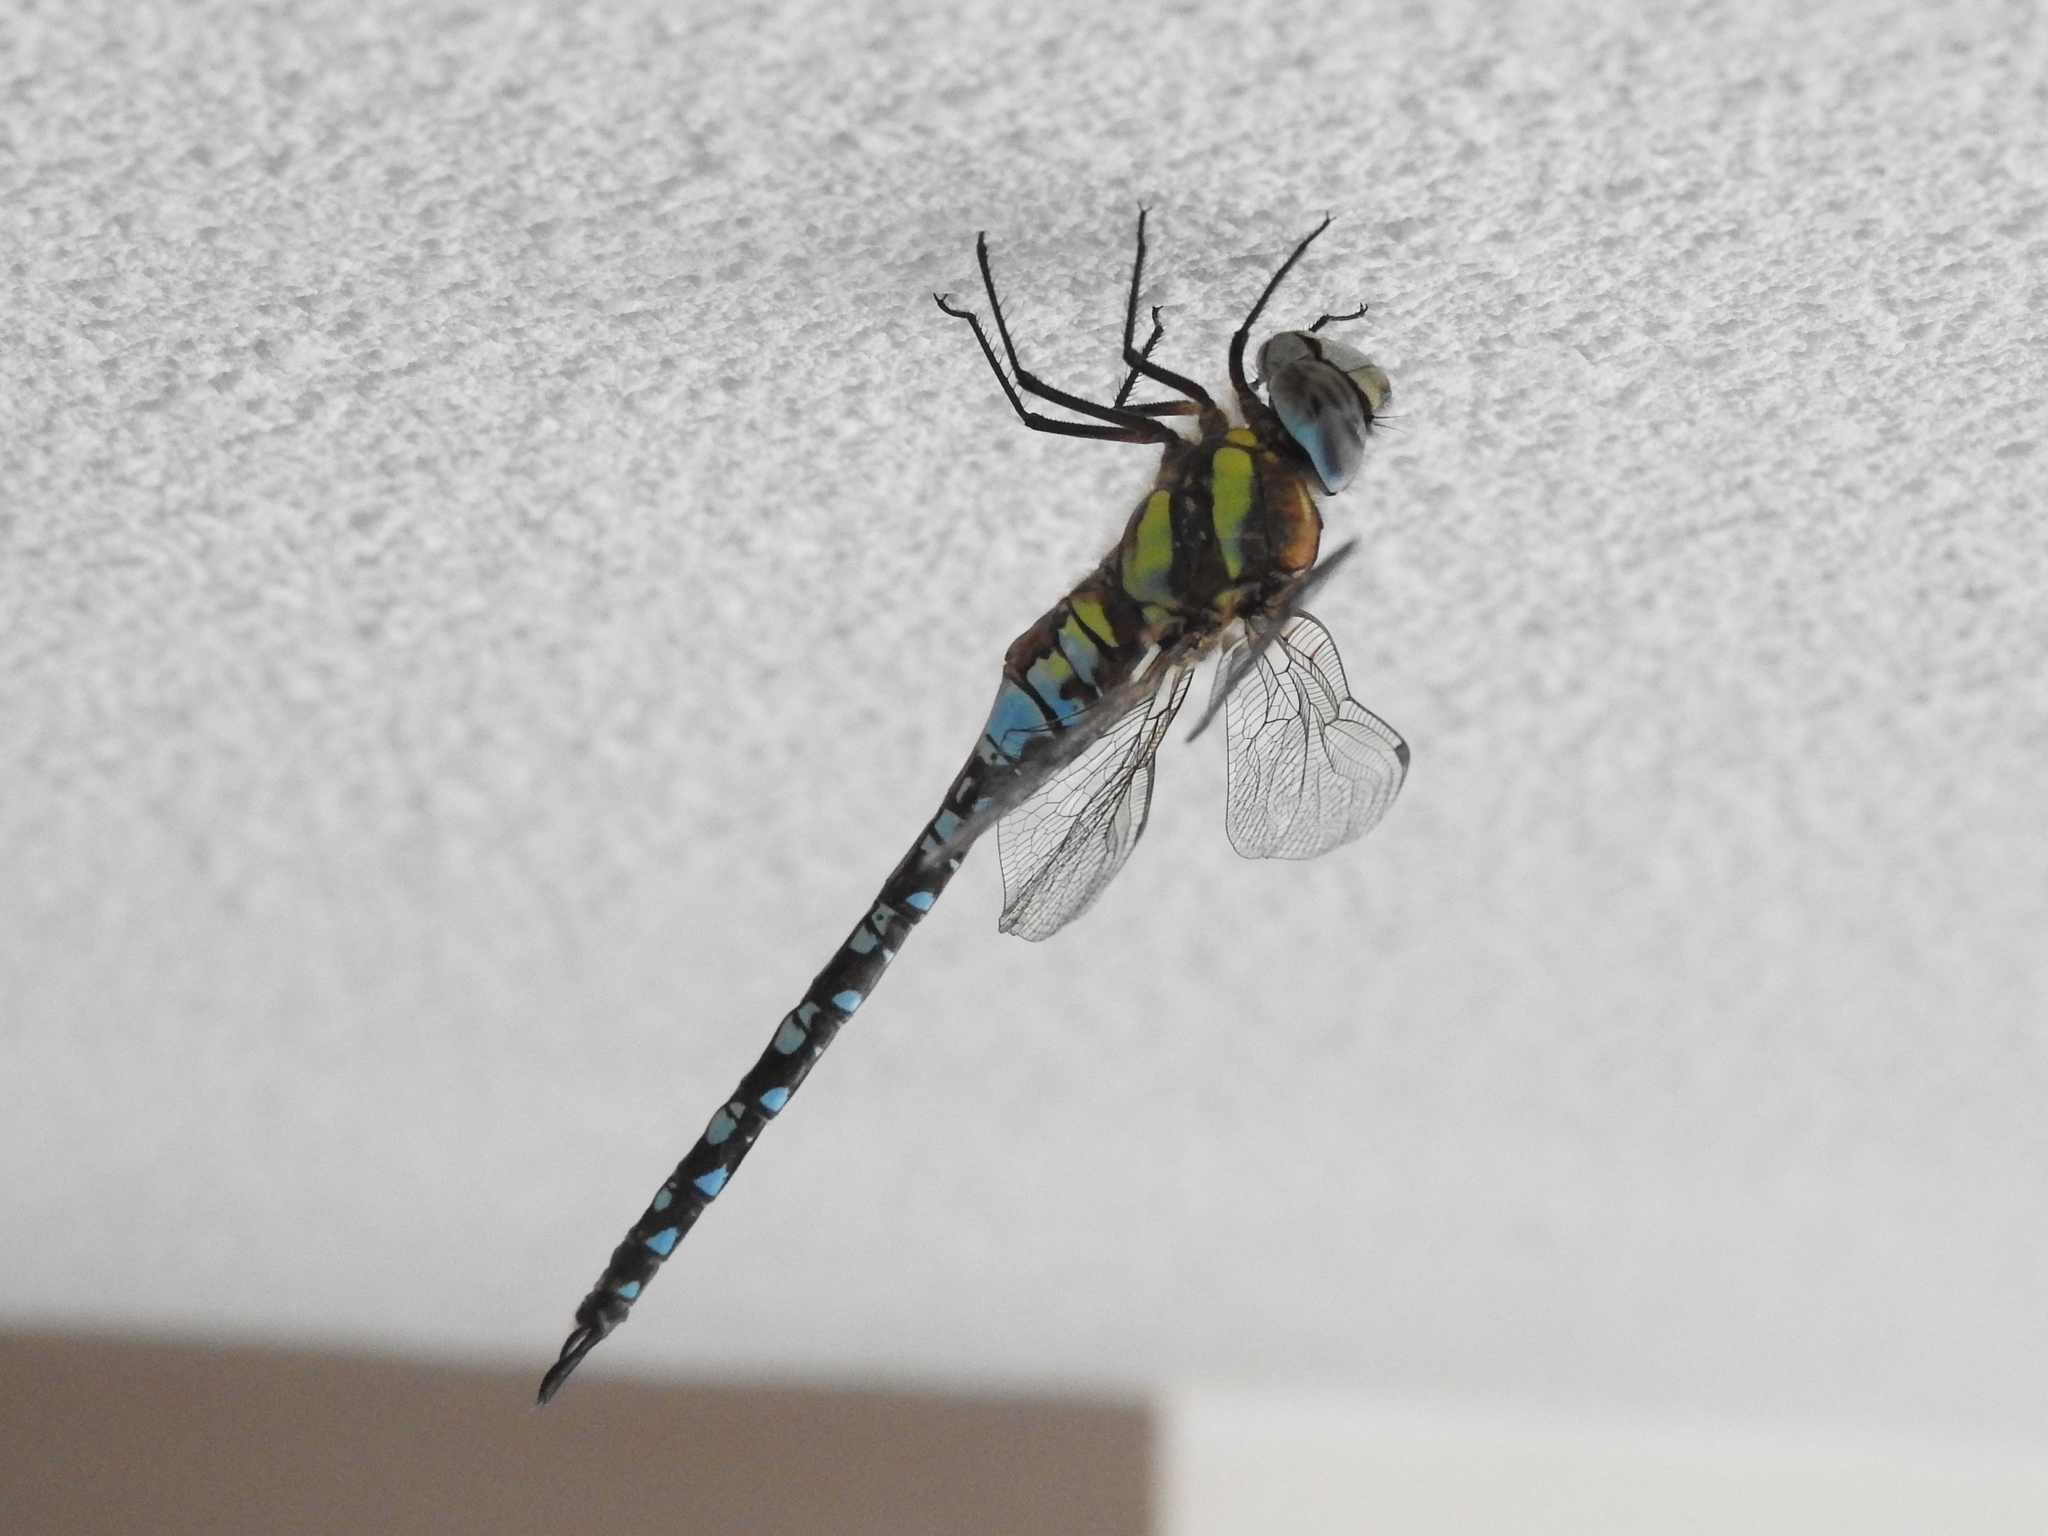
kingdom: Animalia
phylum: Arthropoda
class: Insecta
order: Odonata
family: Aeshnidae
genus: Aeshna
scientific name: Aeshna mixta
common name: Migrant hawker
